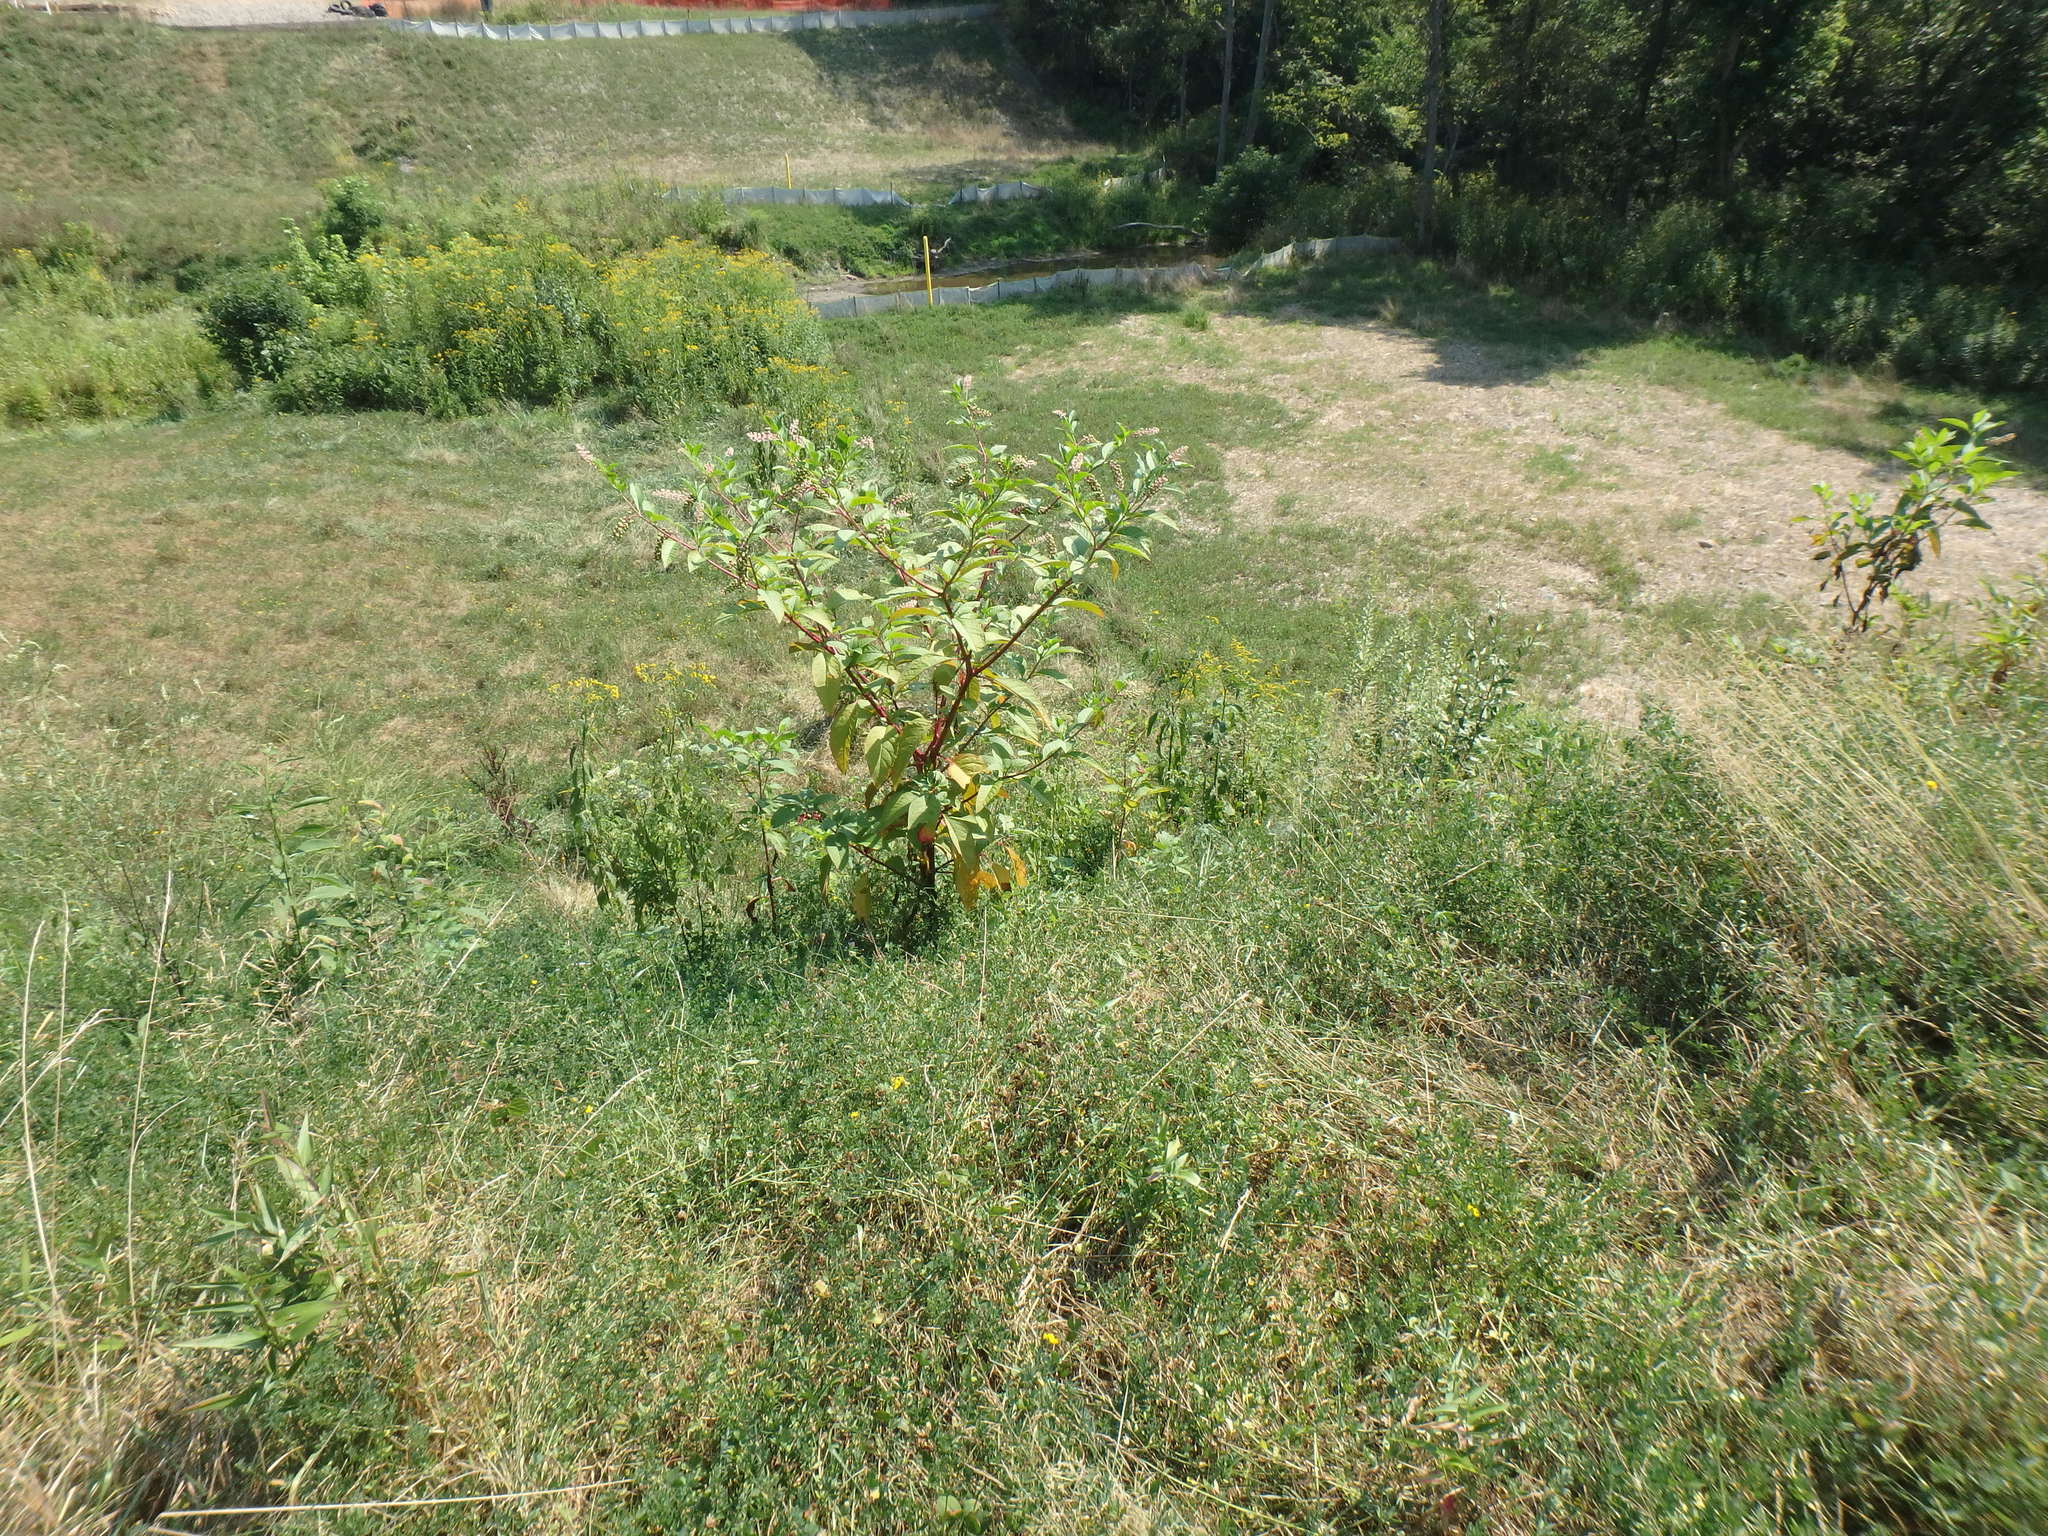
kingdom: Plantae
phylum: Tracheophyta
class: Magnoliopsida
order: Caryophyllales
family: Phytolaccaceae
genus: Phytolacca
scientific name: Phytolacca americana
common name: American pokeweed
